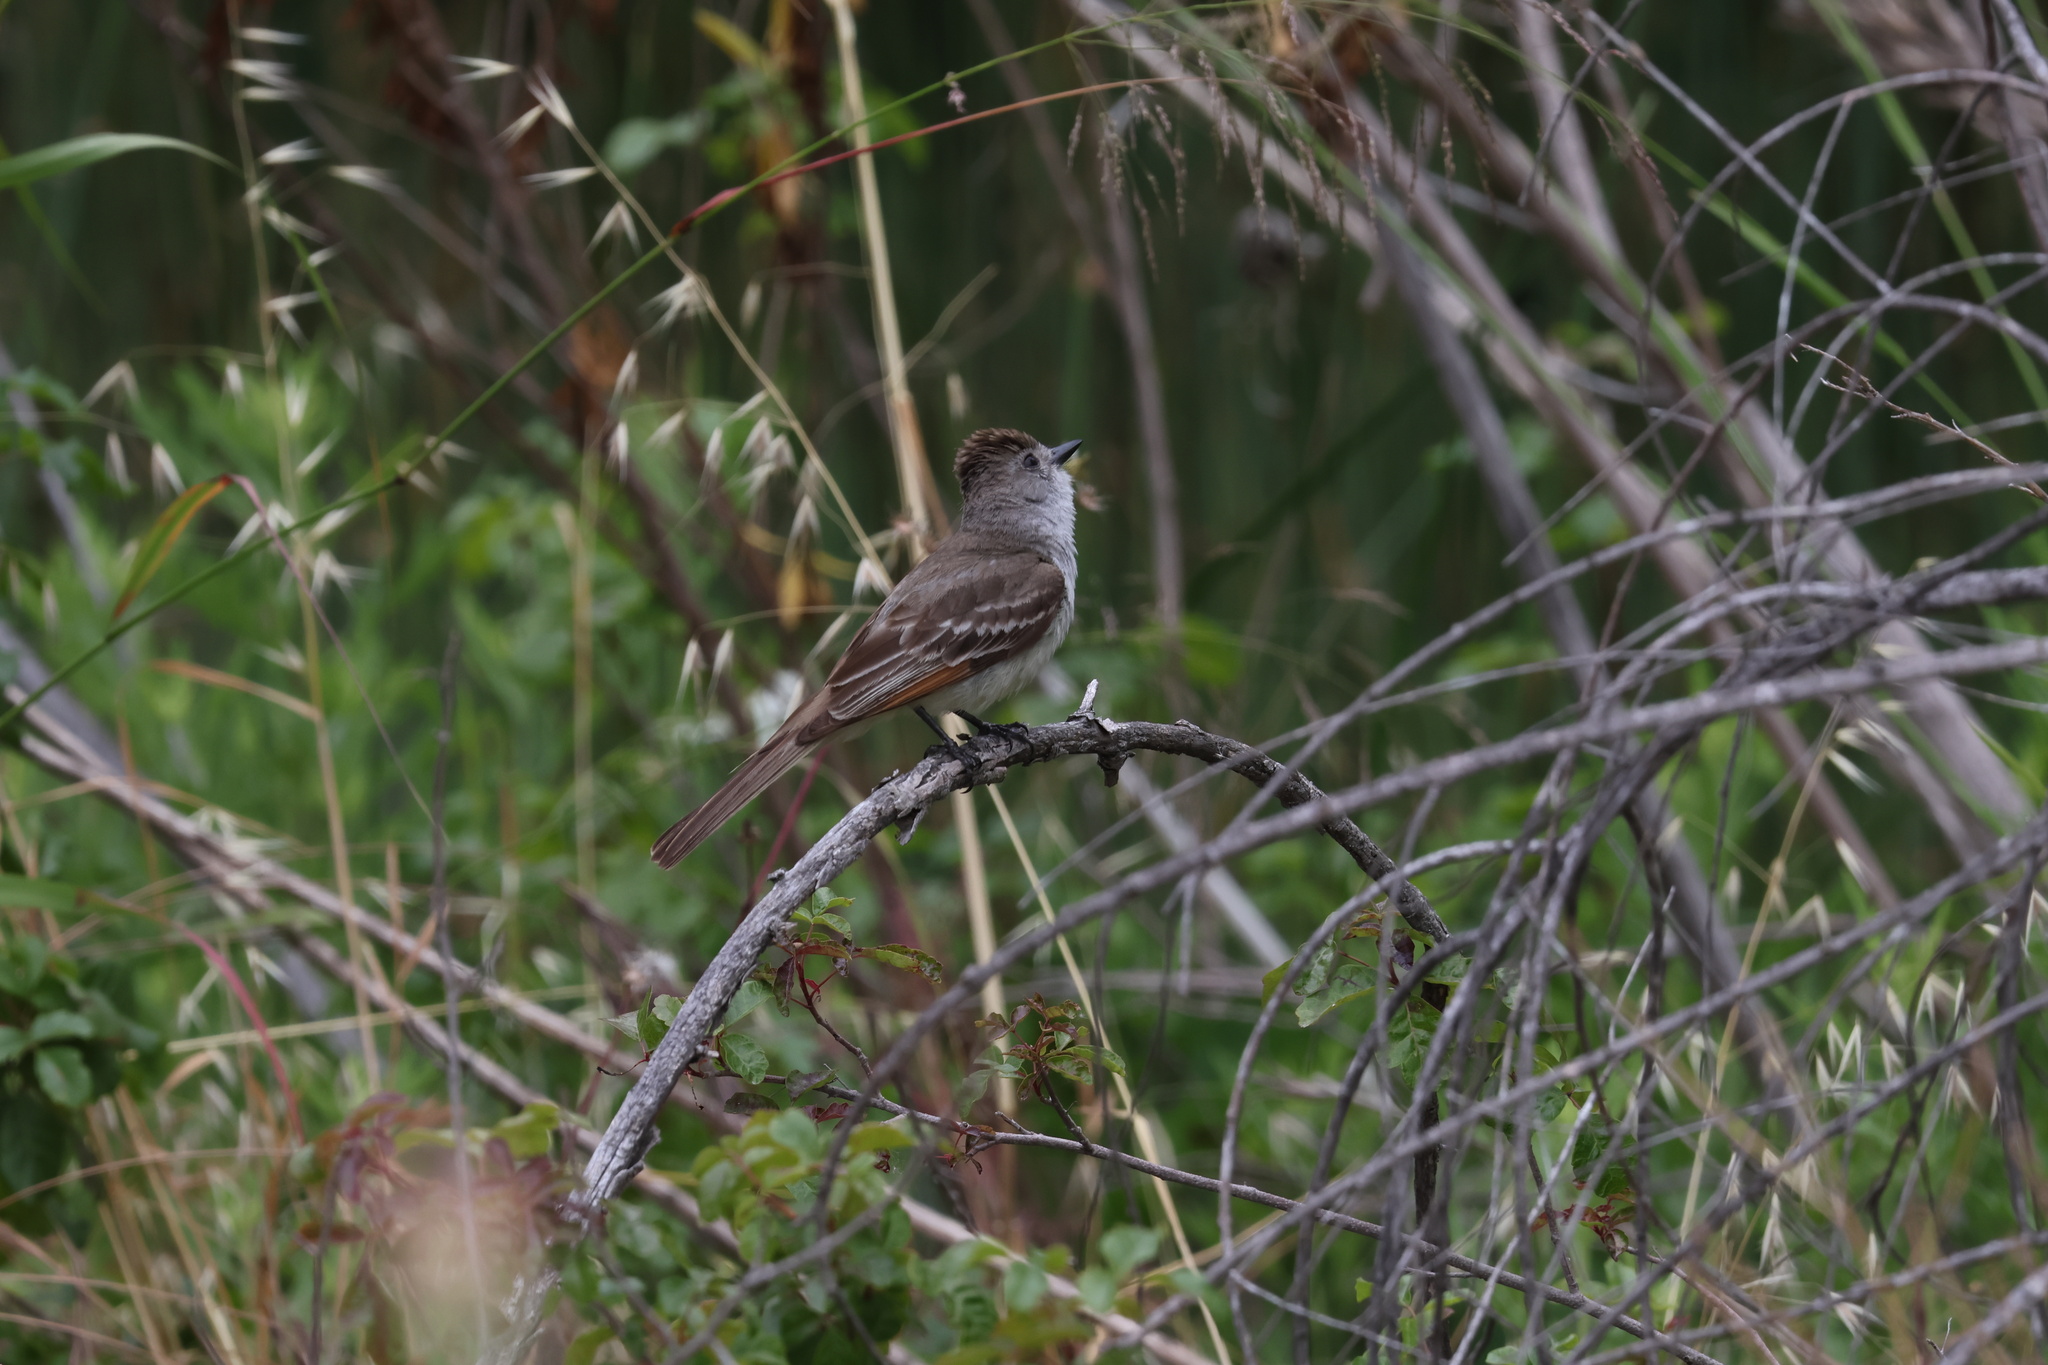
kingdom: Animalia
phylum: Chordata
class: Aves
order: Passeriformes
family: Tyrannidae
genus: Myiarchus
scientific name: Myiarchus cinerascens
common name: Ash-throated flycatcher
